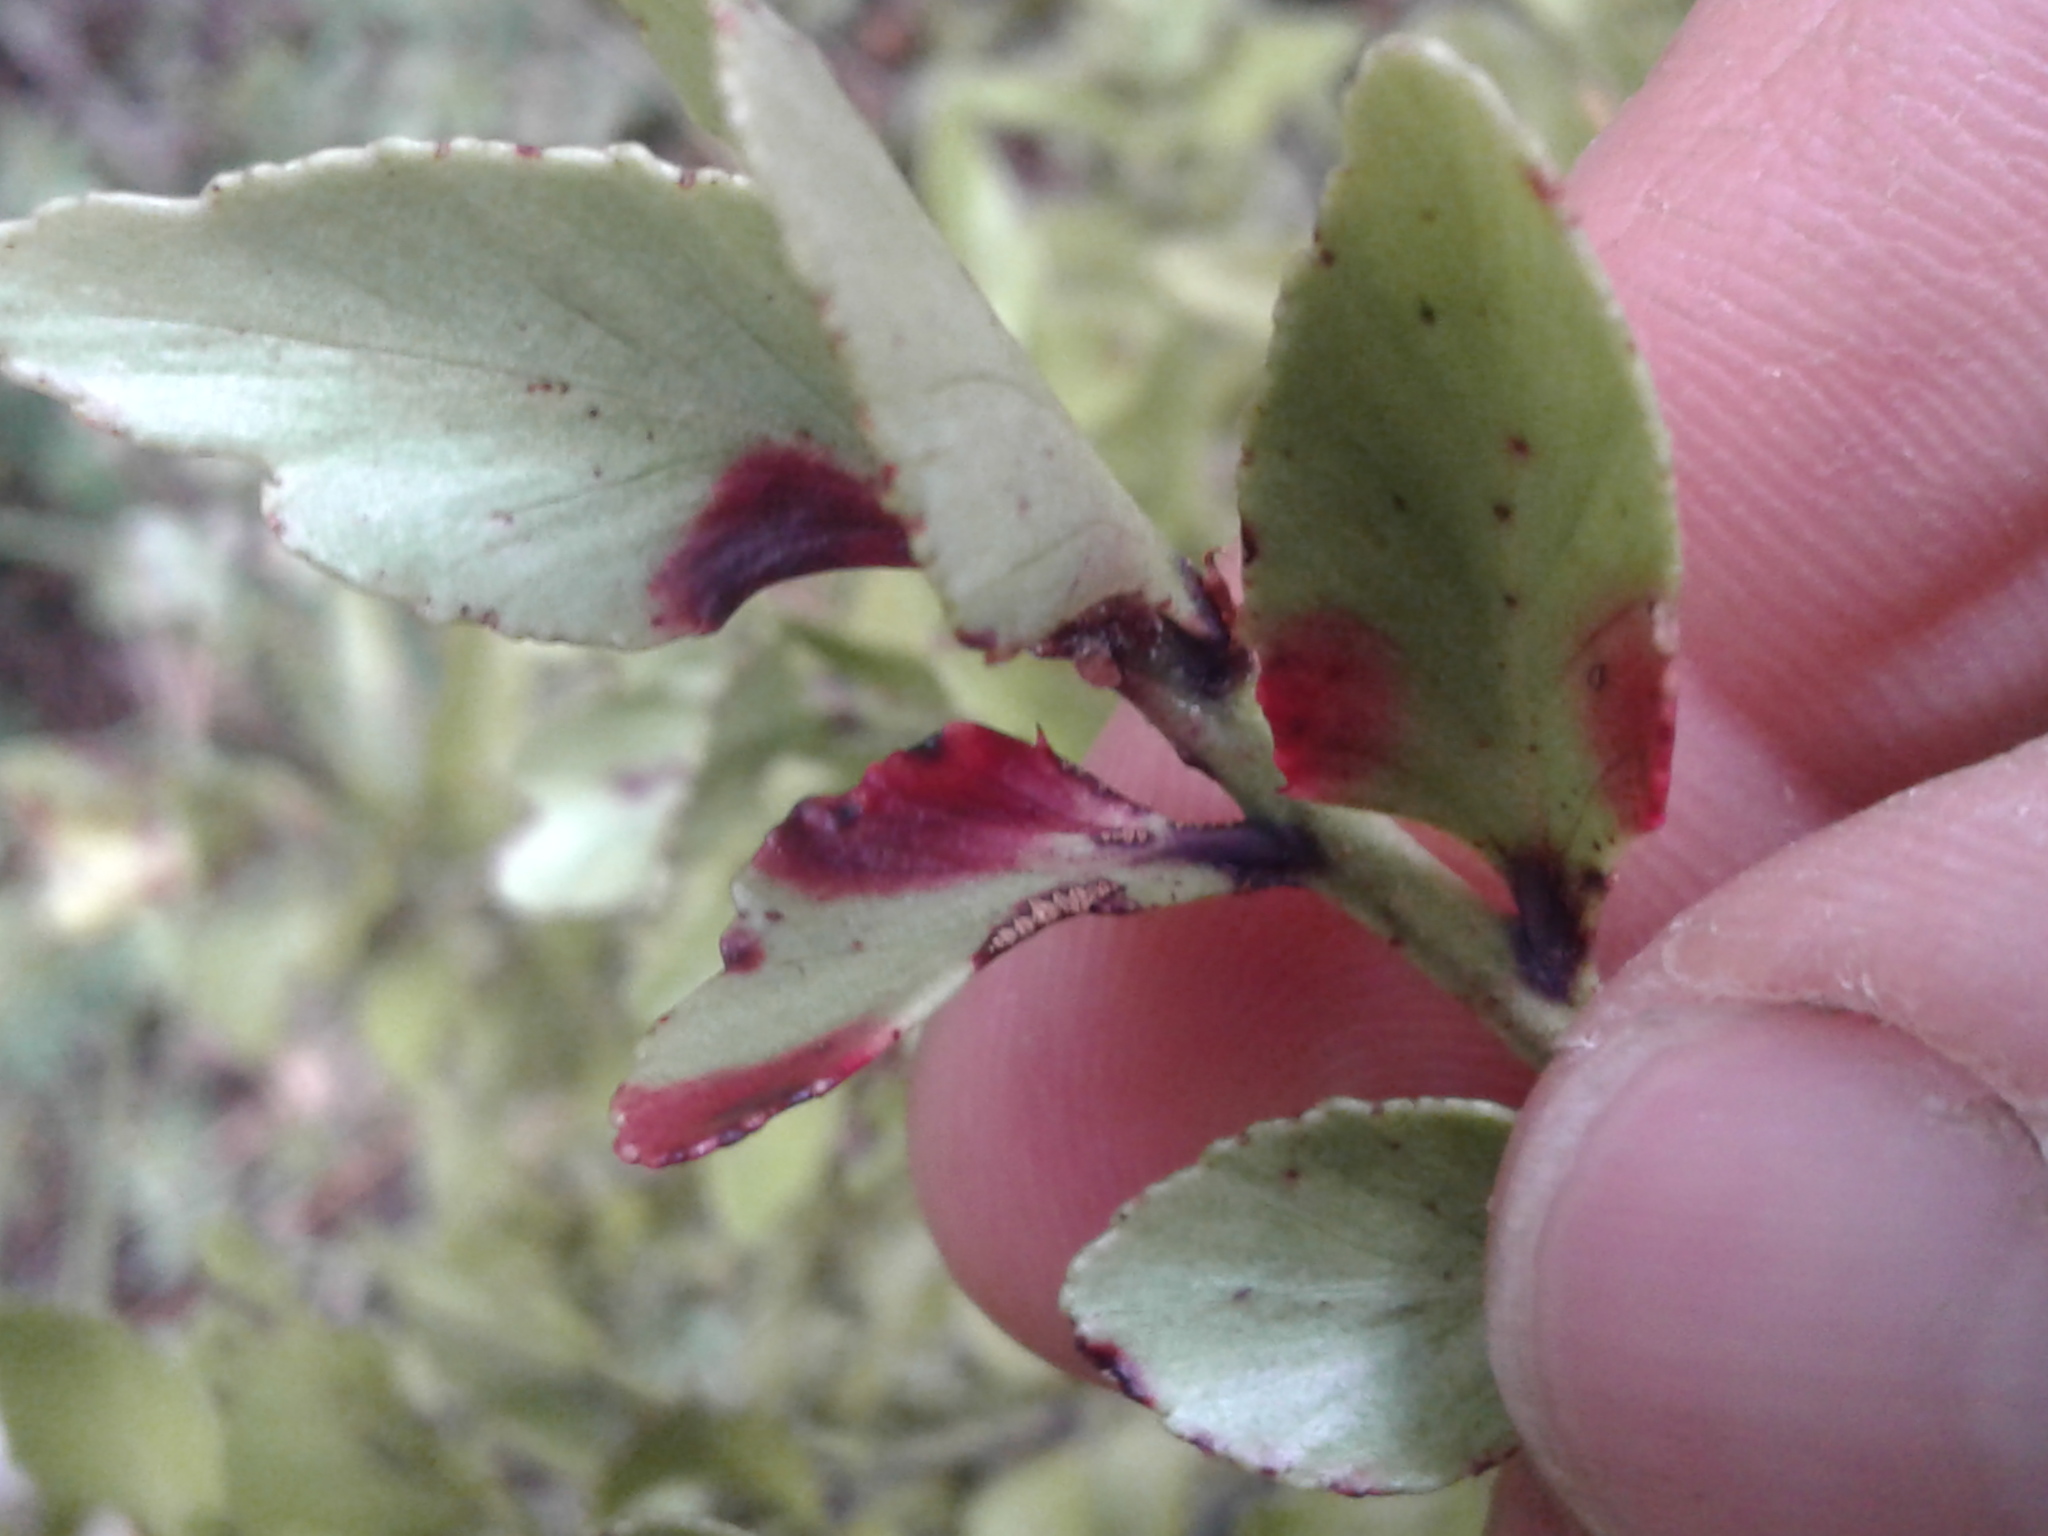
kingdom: Plantae
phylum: Tracheophyta
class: Pinopsida
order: Pinales
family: Phyllocladaceae
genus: Phyllocladus
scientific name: Phyllocladus trichomanoides
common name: Celery pine
